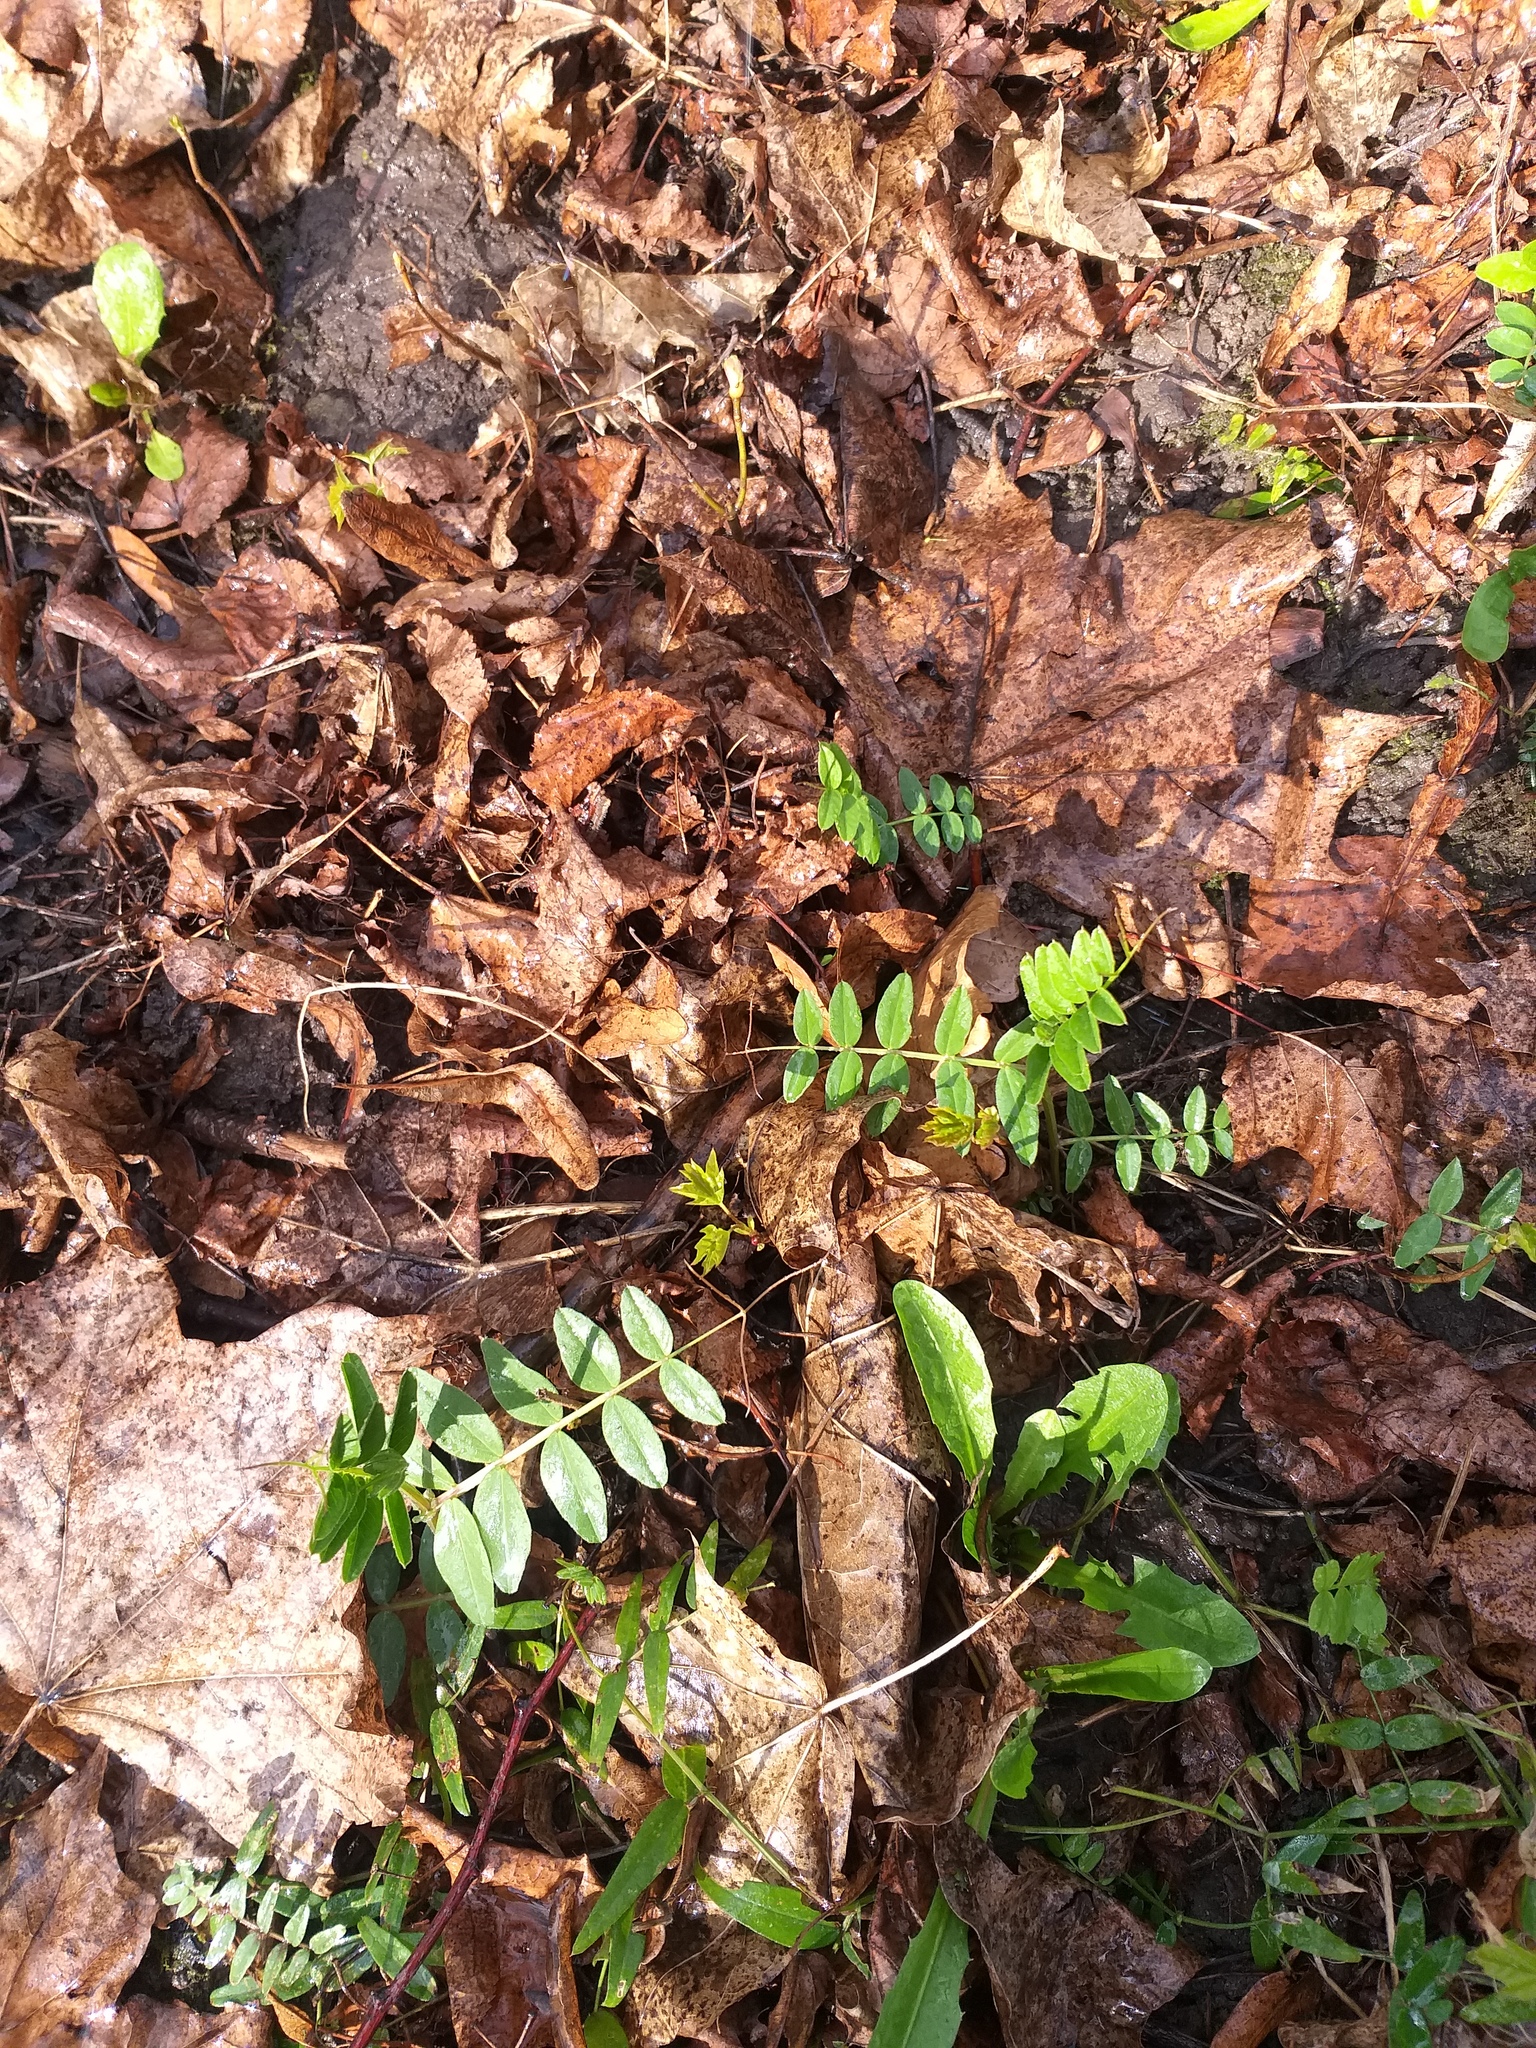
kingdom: Plantae
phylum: Tracheophyta
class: Magnoliopsida
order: Fabales
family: Fabaceae
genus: Vicia
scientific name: Vicia sepium
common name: Bush vetch
